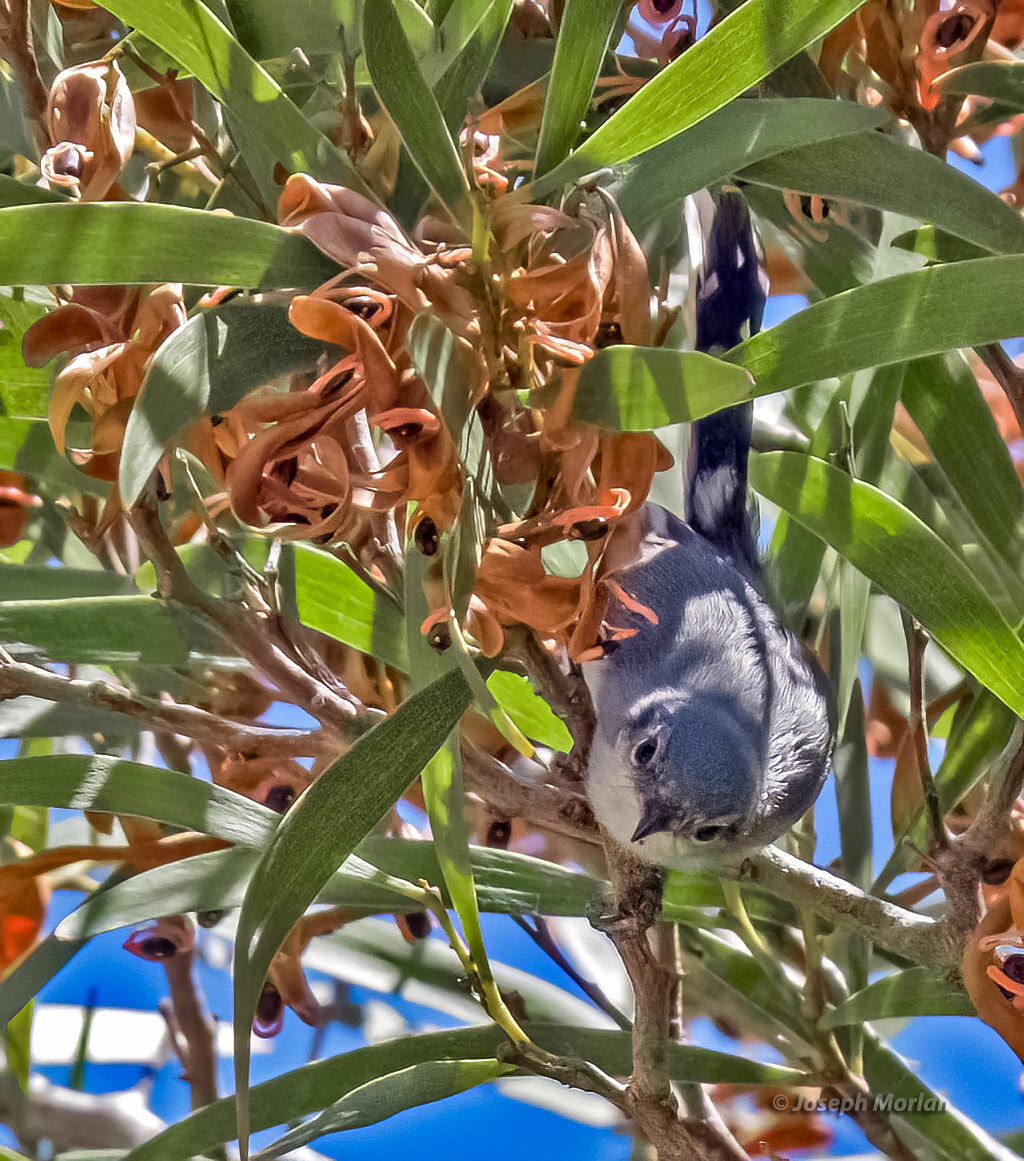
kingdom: Animalia
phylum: Chordata
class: Aves
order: Passeriformes
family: Polioptilidae
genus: Polioptila
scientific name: Polioptila dumicola
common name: Masked gnatcatcher
